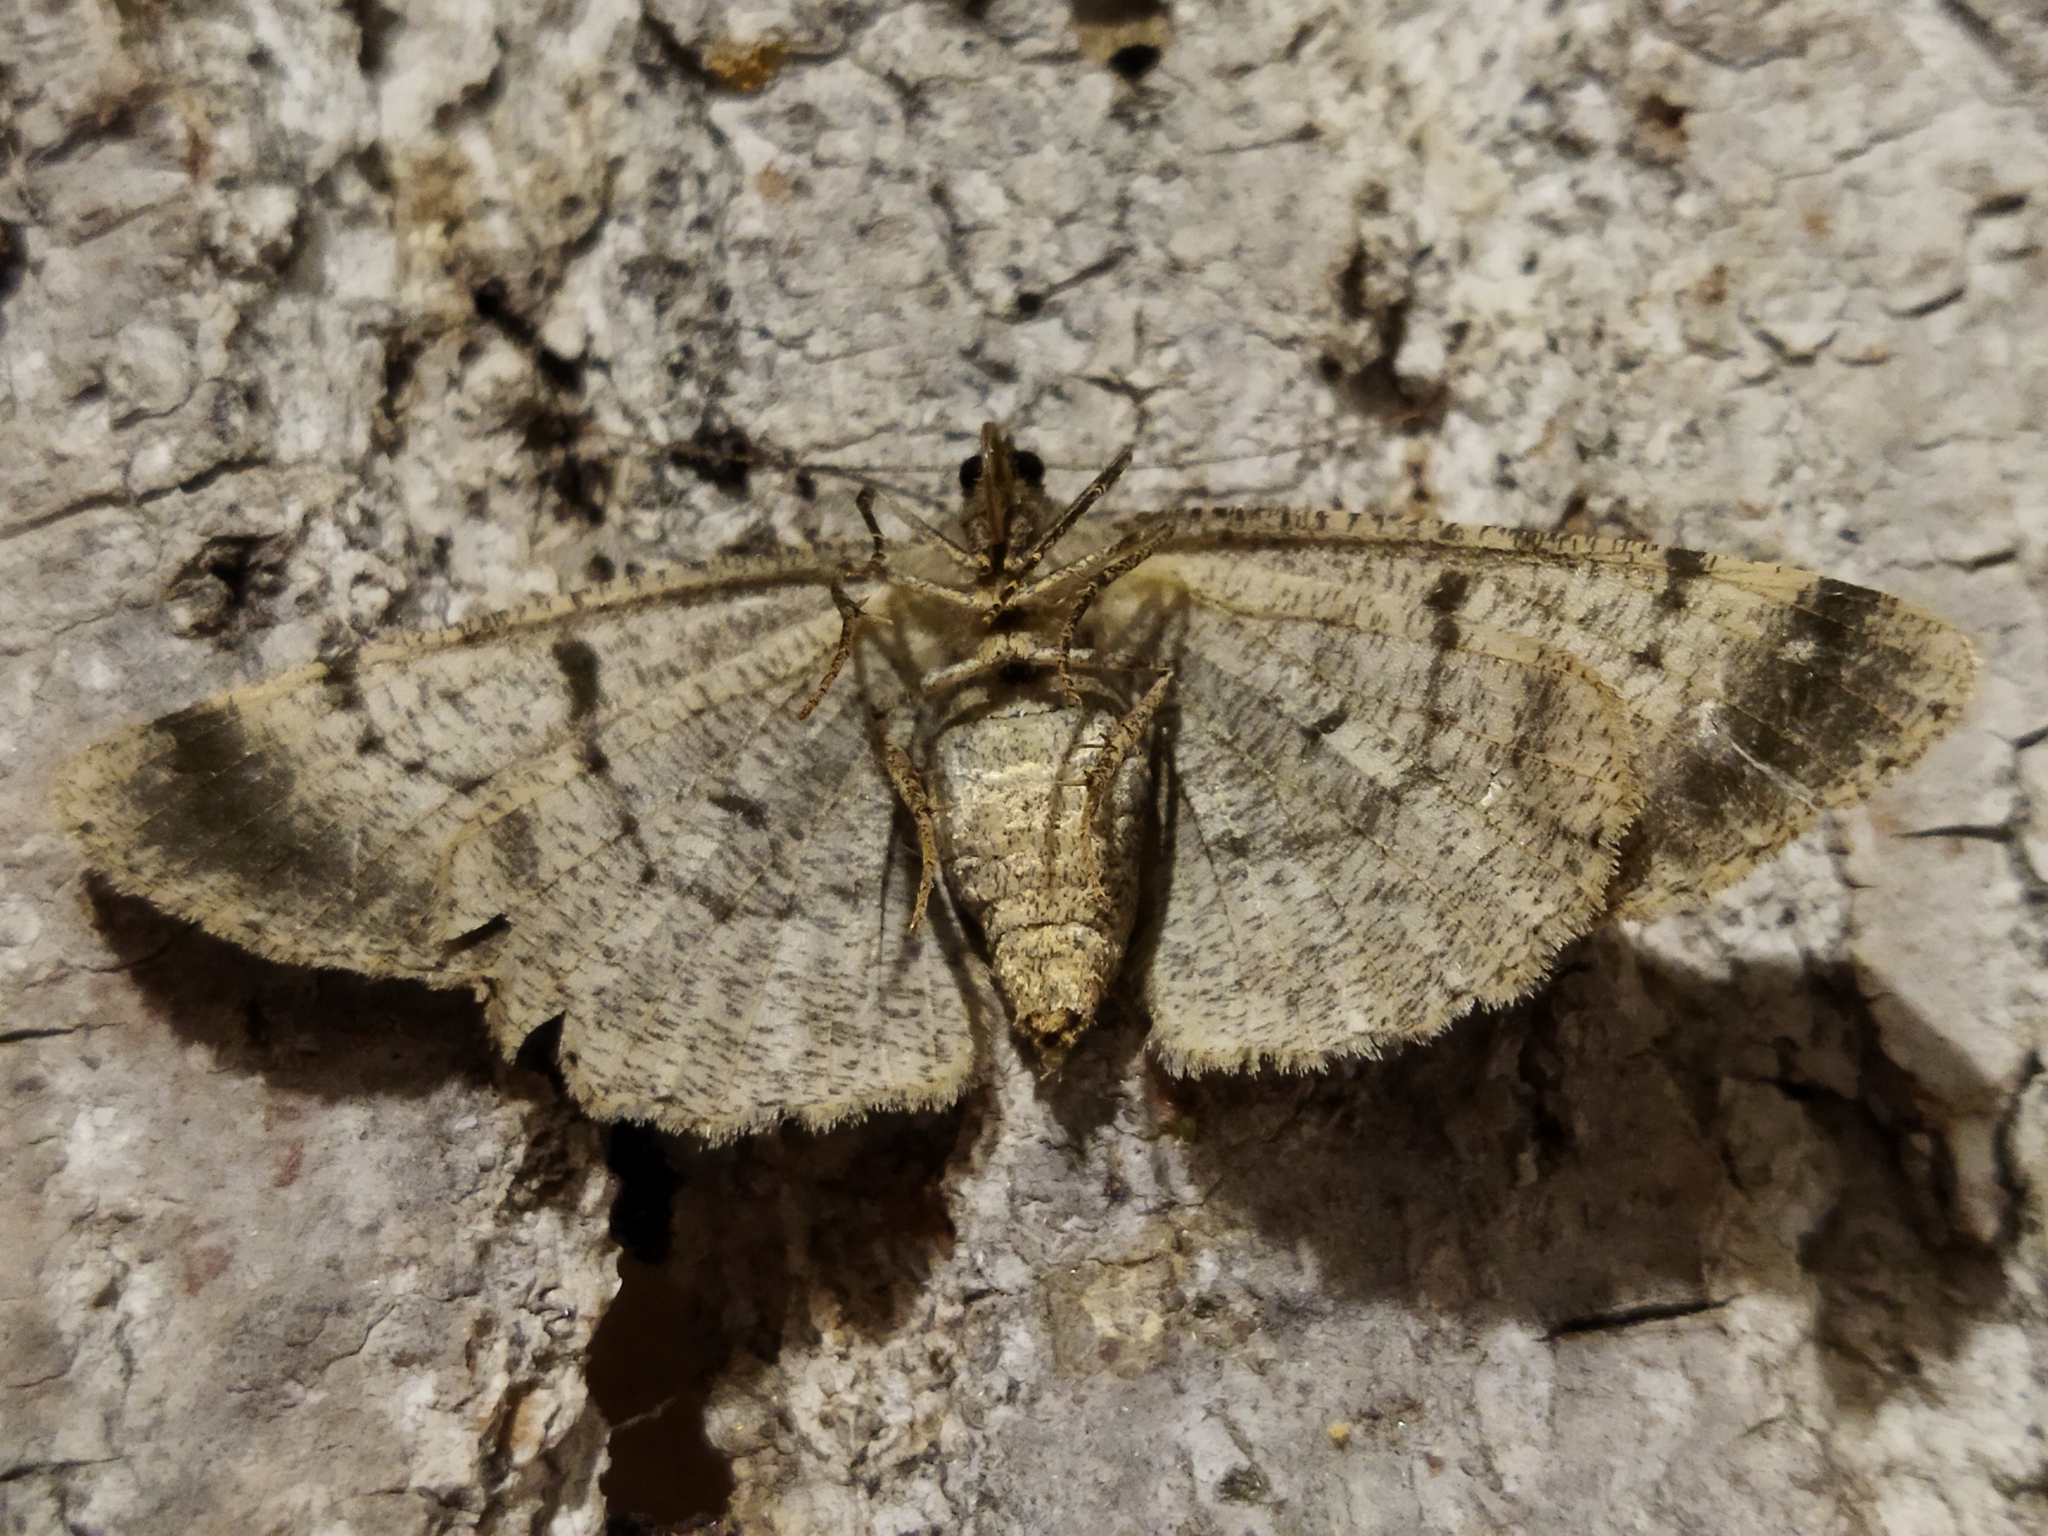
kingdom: Animalia
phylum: Arthropoda
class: Insecta
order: Lepidoptera
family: Geometridae
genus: Hypomecis
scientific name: Hypomecis punctinalis
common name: Pale oak beauty
